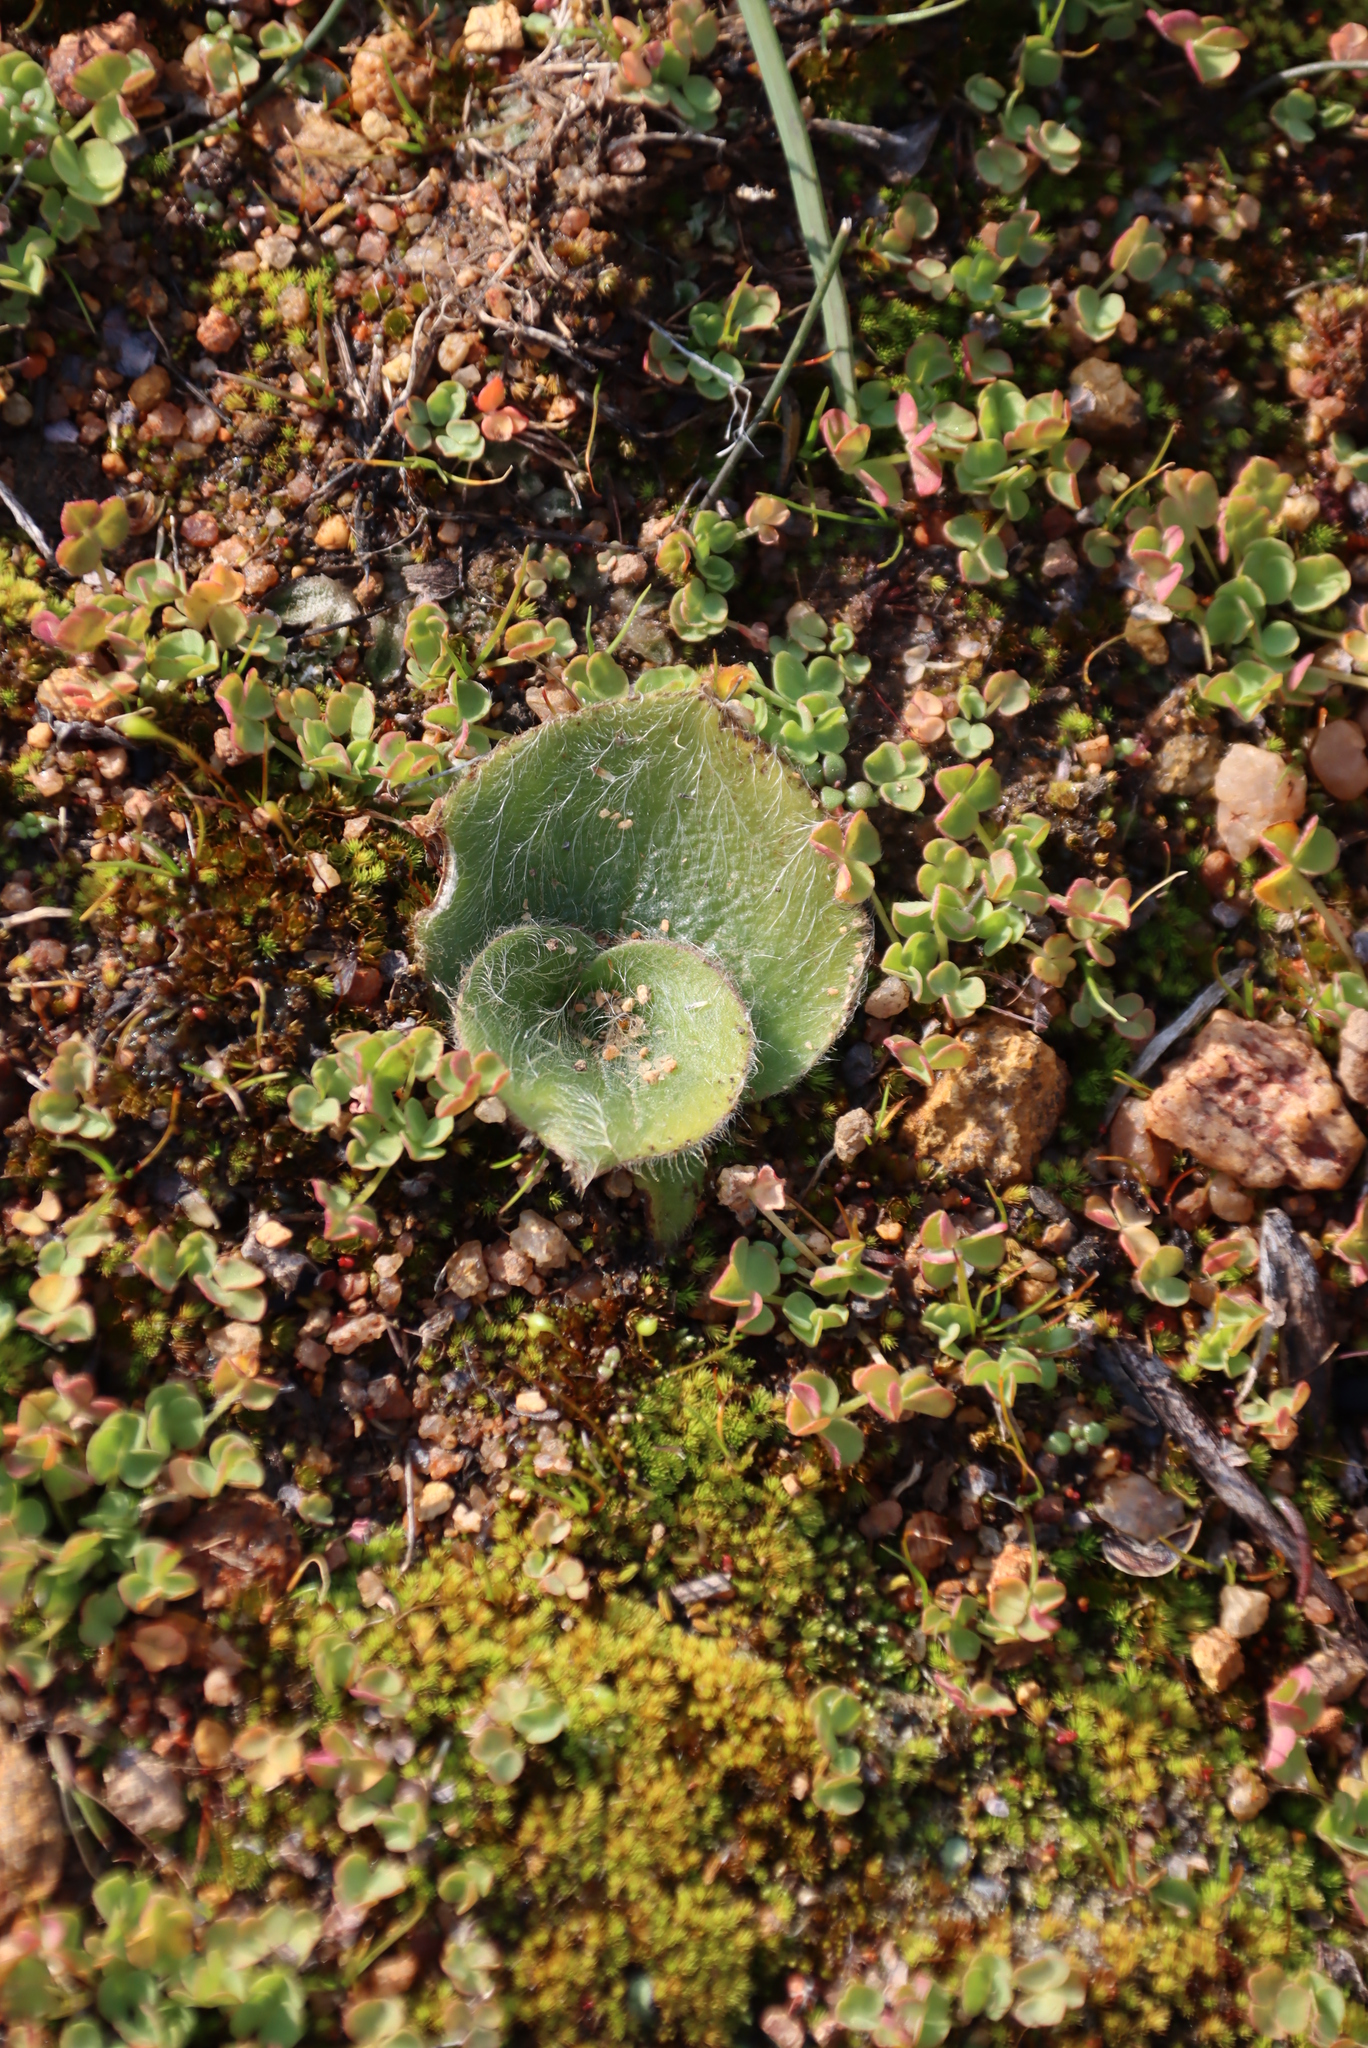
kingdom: Plantae
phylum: Tracheophyta
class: Liliopsida
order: Asparagales
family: Orchidaceae
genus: Holothrix
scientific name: Holothrix villosa
